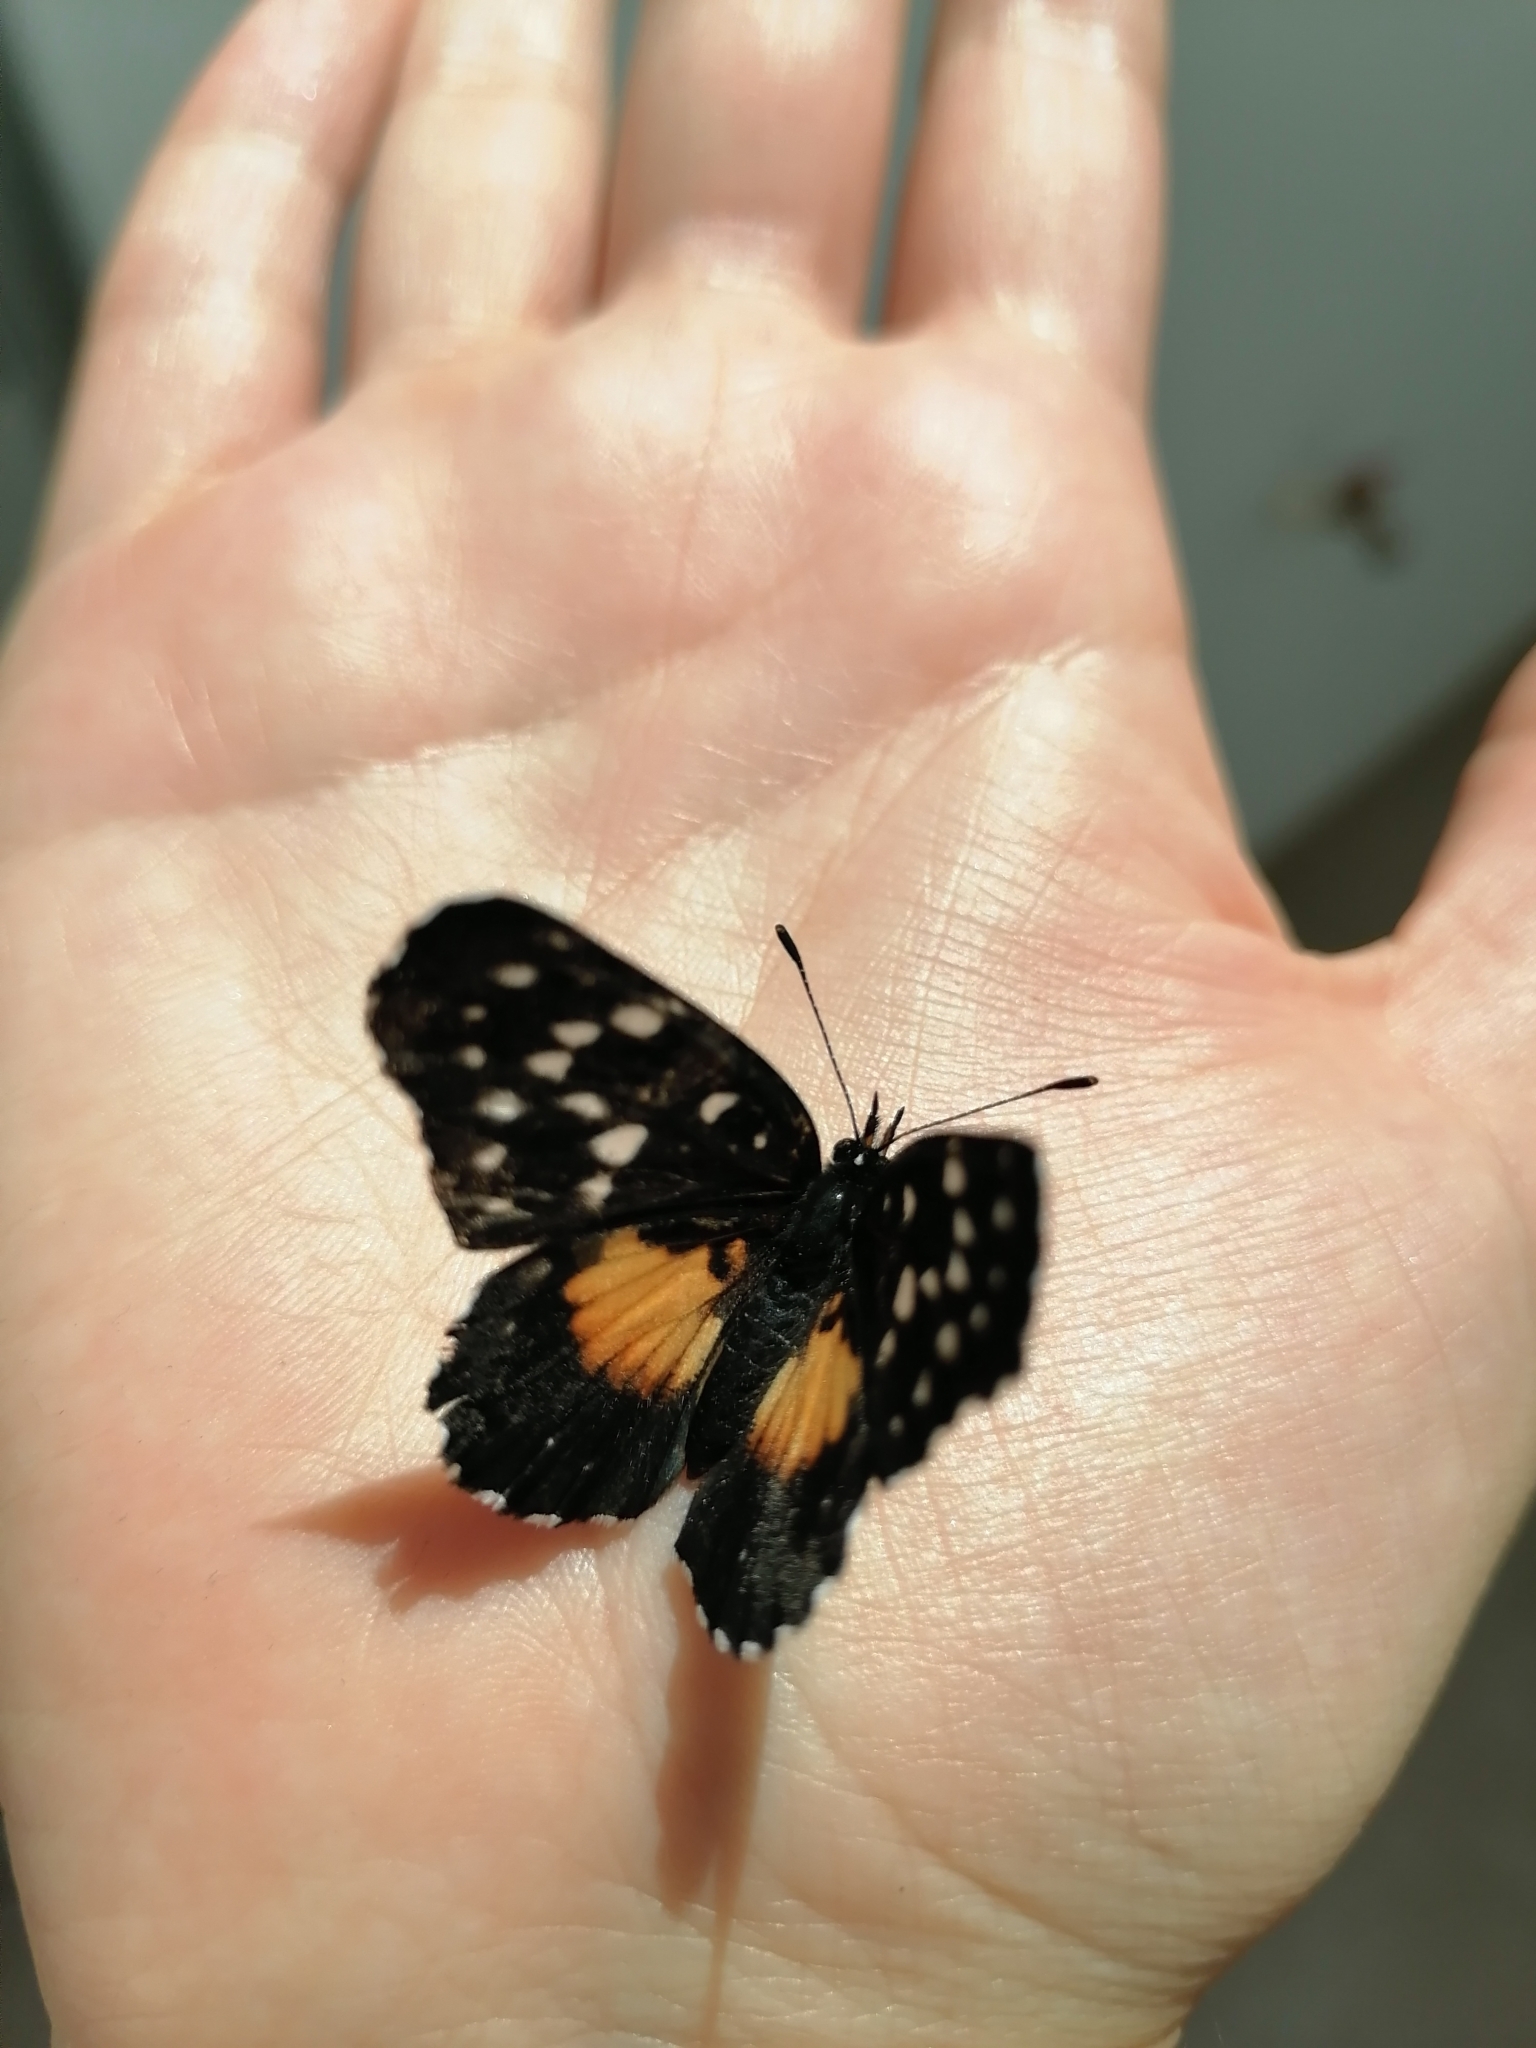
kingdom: Animalia
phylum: Arthropoda
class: Insecta
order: Lepidoptera
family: Nymphalidae
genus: Chlosyne
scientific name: Chlosyne rosita
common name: Rosita patch
